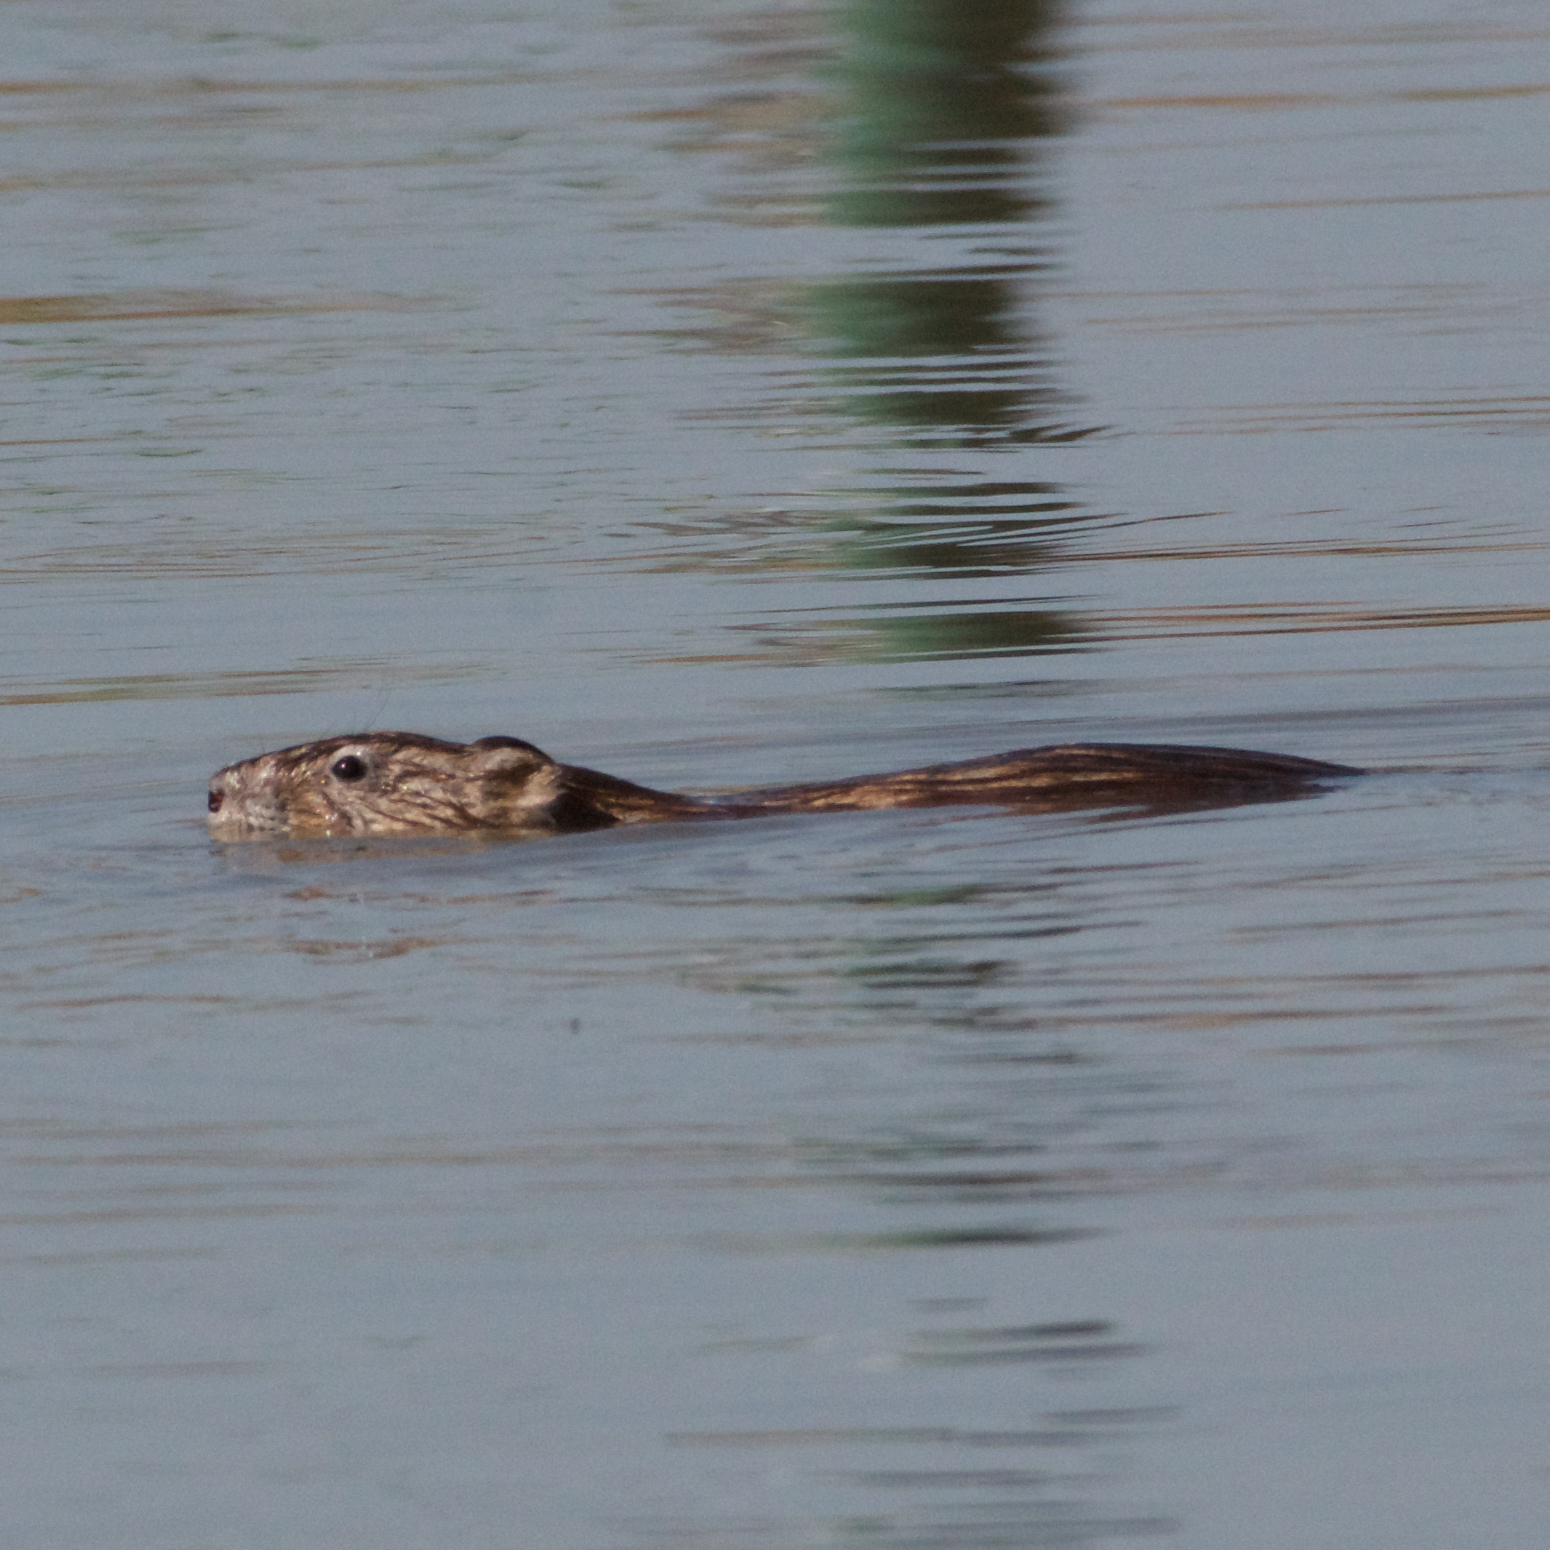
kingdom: Animalia
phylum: Chordata
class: Mammalia
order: Rodentia
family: Cricetidae
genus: Ondatra
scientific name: Ondatra zibethicus
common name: Muskrat
